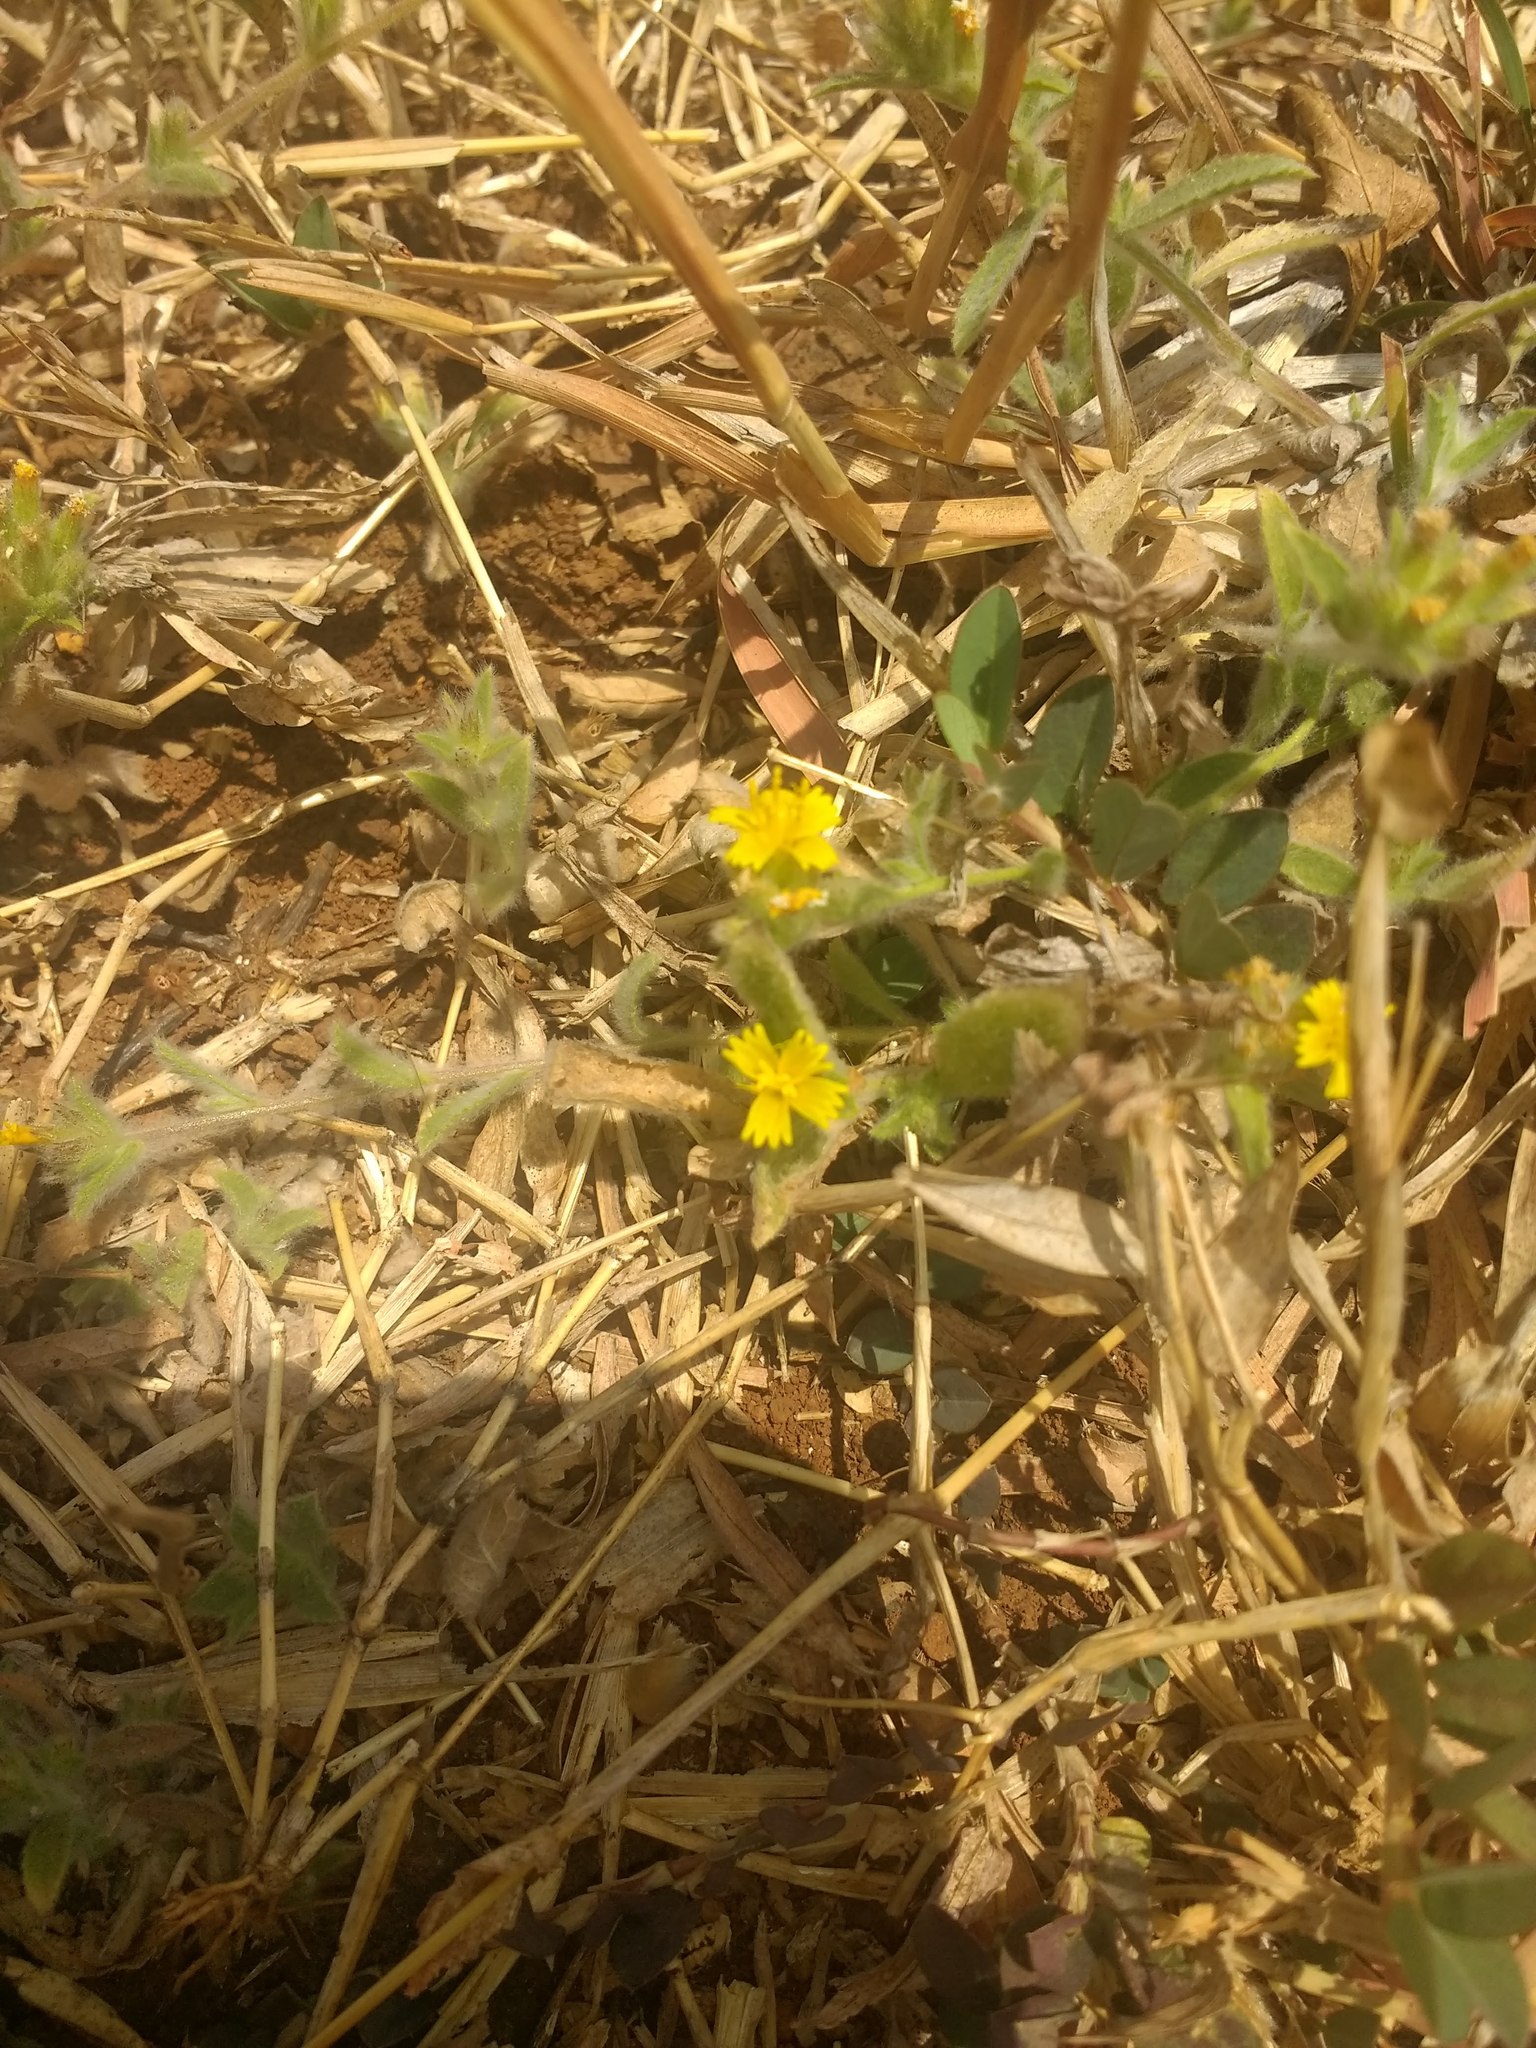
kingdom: Plantae
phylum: Tracheophyta
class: Magnoliopsida
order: Asterales
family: Asteraceae
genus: Nanothamnus
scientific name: Nanothamnus sericeus
